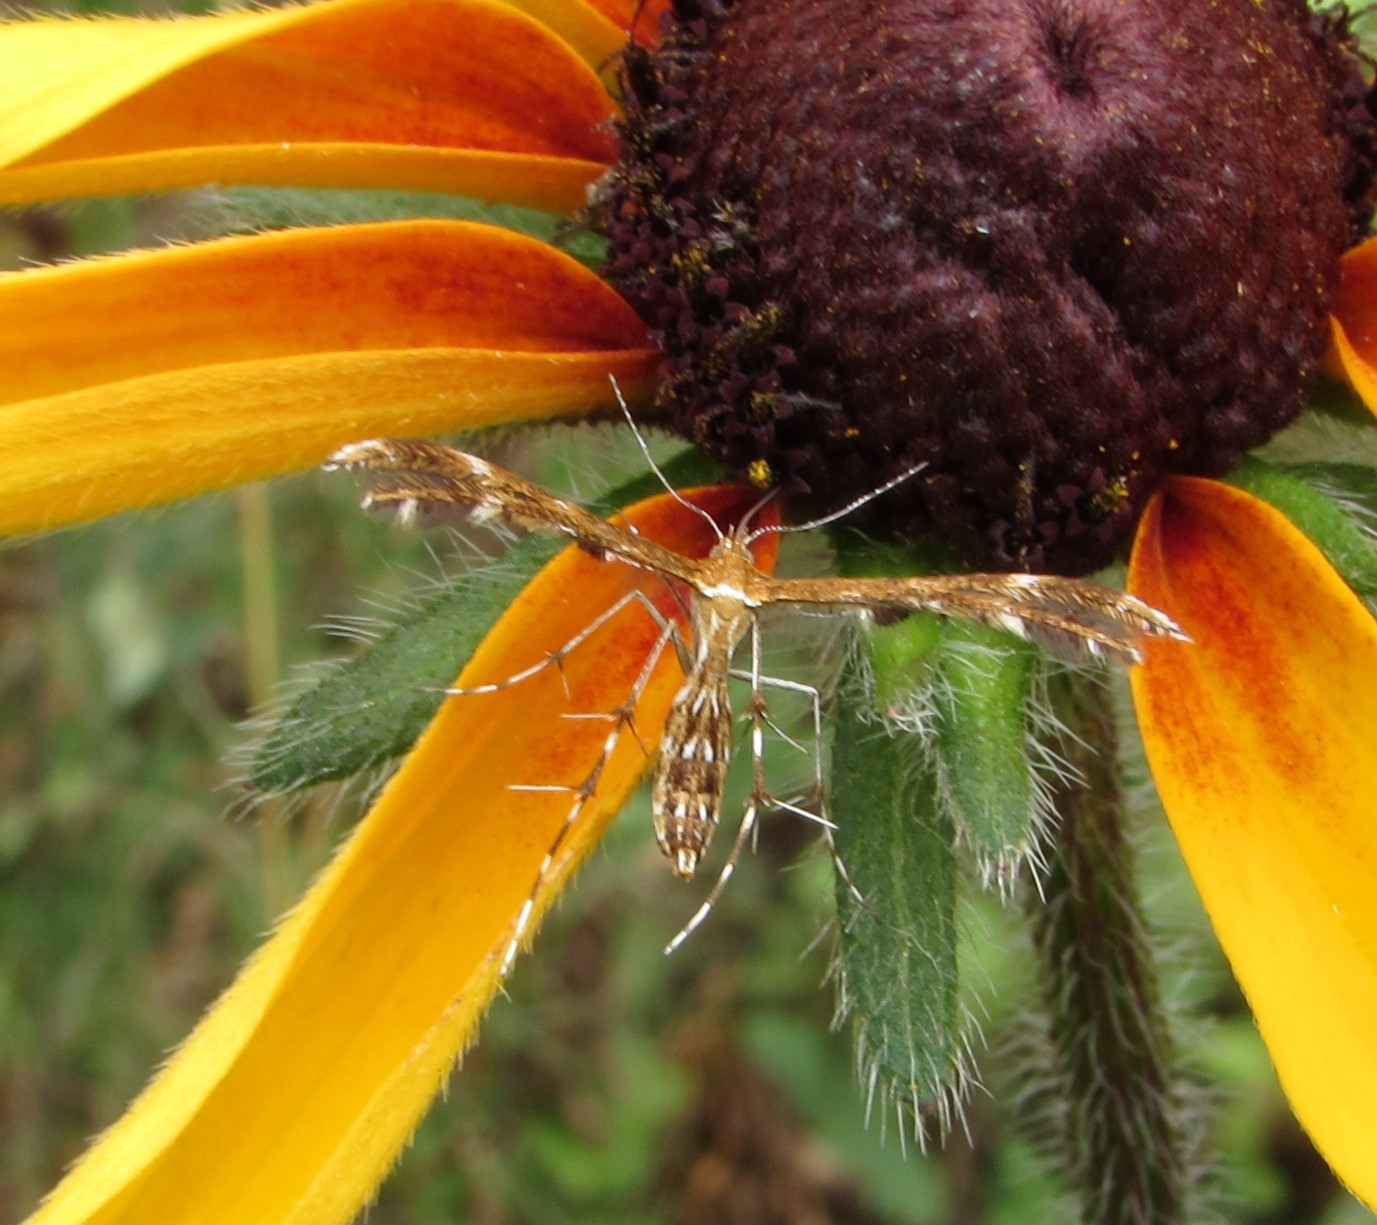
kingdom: Animalia
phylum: Arthropoda
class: Insecta
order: Lepidoptera
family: Pterophoridae
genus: Dejongia
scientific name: Dejongia lobidactylus
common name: Lobed plume moth
